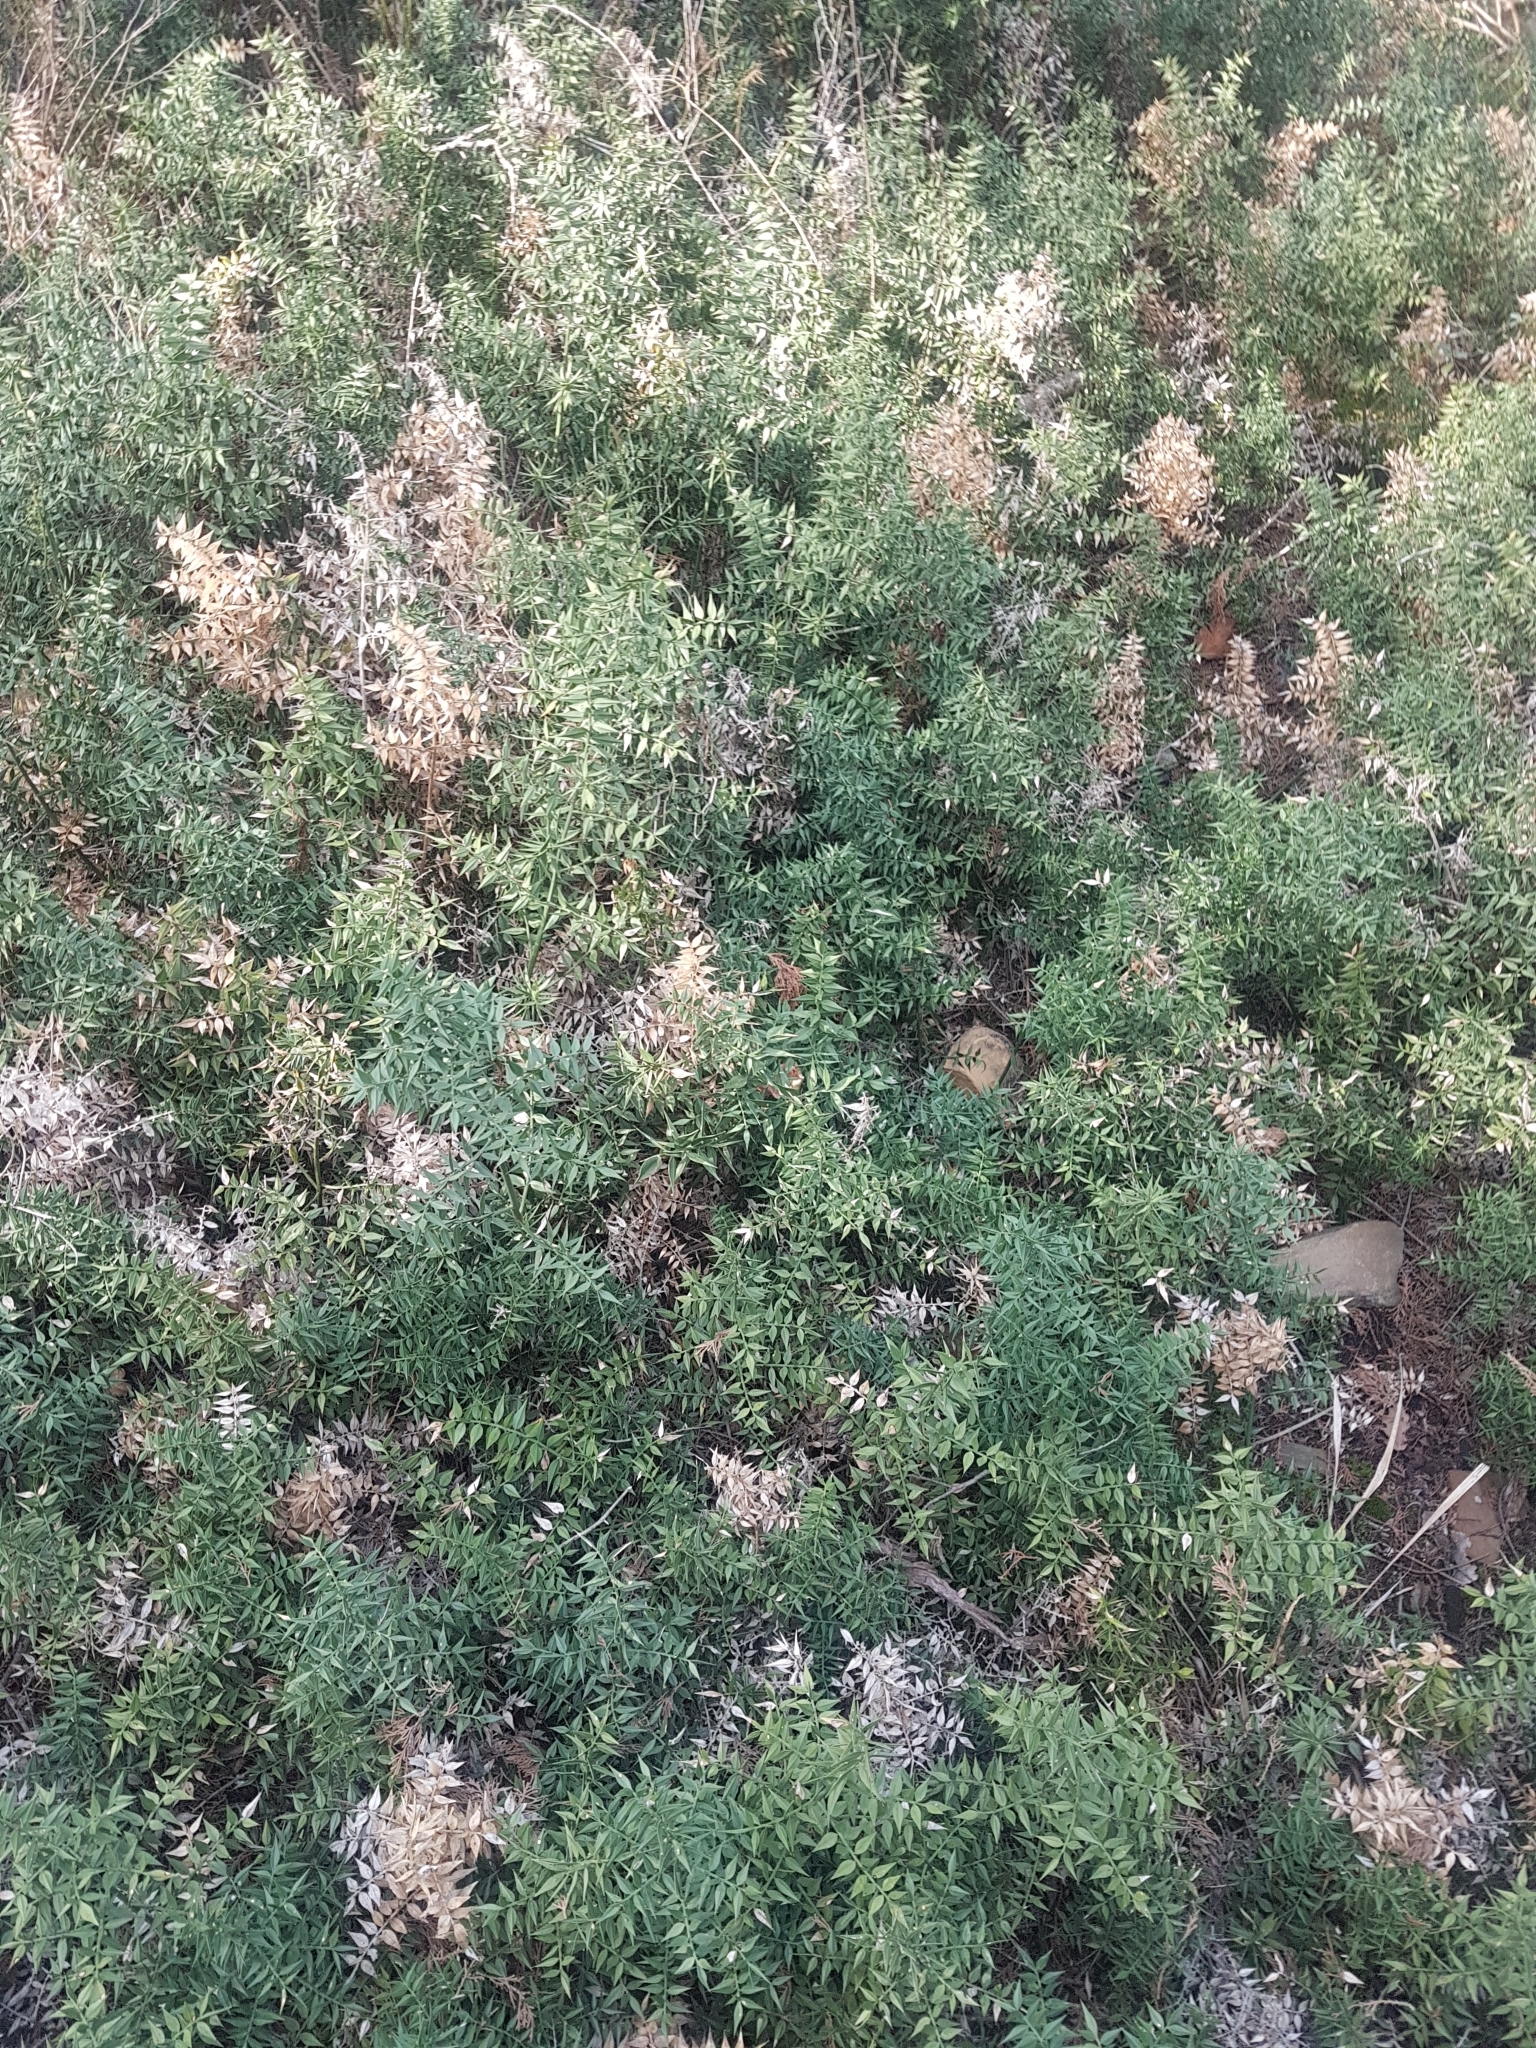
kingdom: Plantae
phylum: Tracheophyta
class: Liliopsida
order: Asparagales
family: Asparagaceae
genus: Ruscus
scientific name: Ruscus aculeatus
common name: Butcher's-broom
